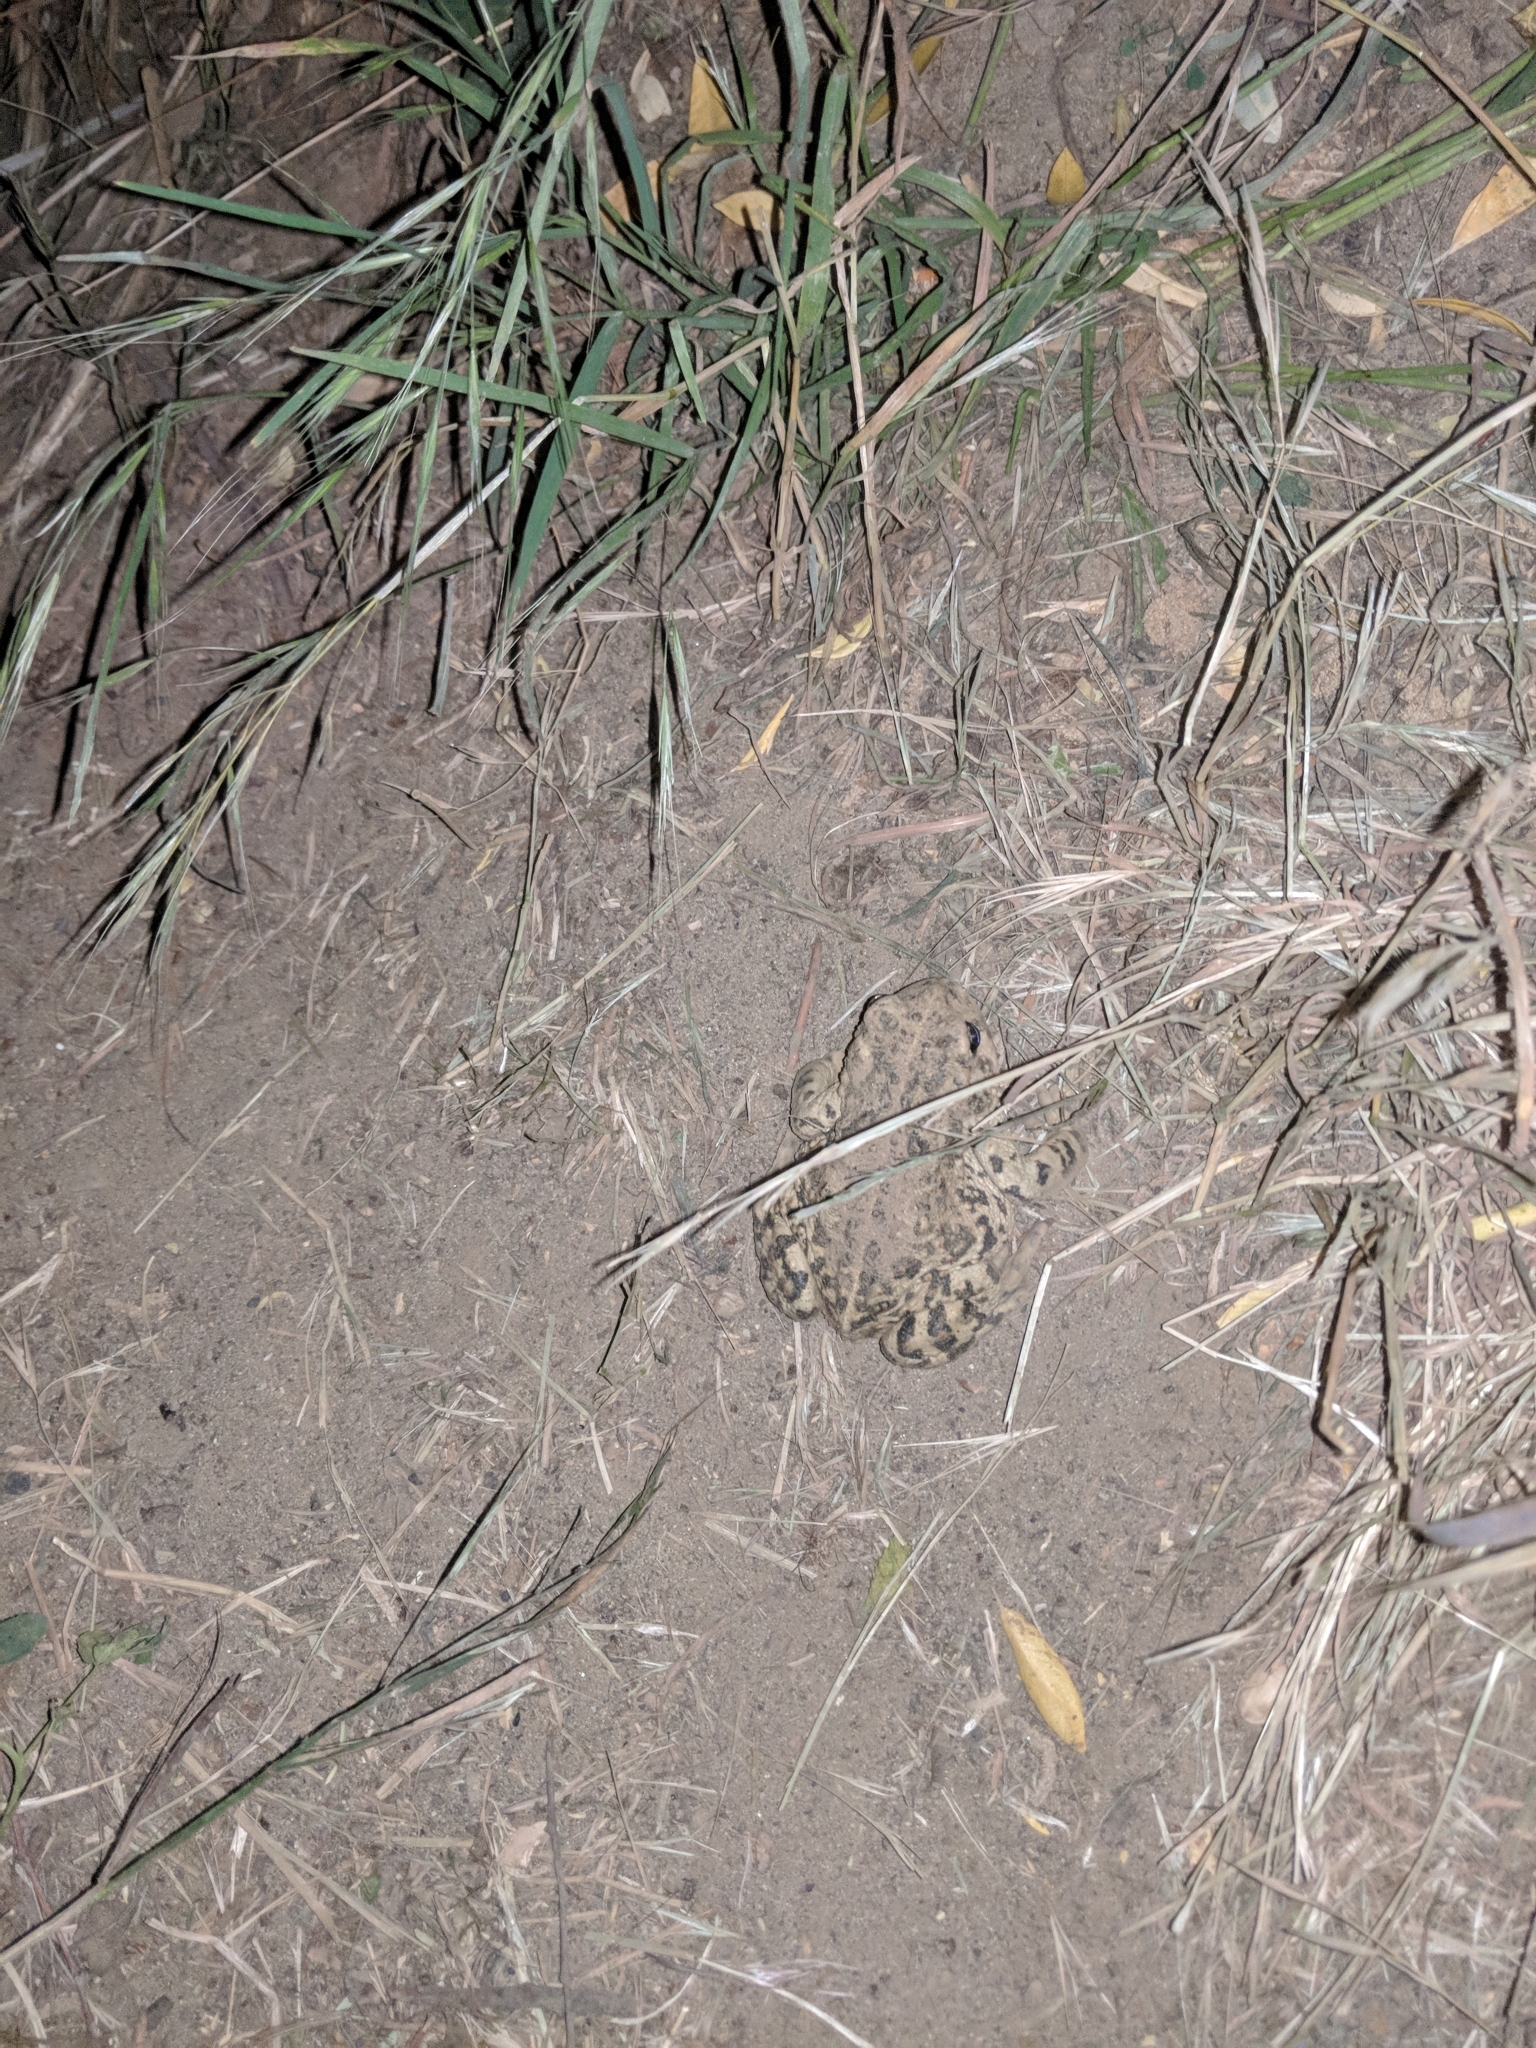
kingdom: Animalia
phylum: Chordata
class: Amphibia
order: Anura
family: Bufonidae
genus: Anaxyrus
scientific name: Anaxyrus boreas
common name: Western toad
